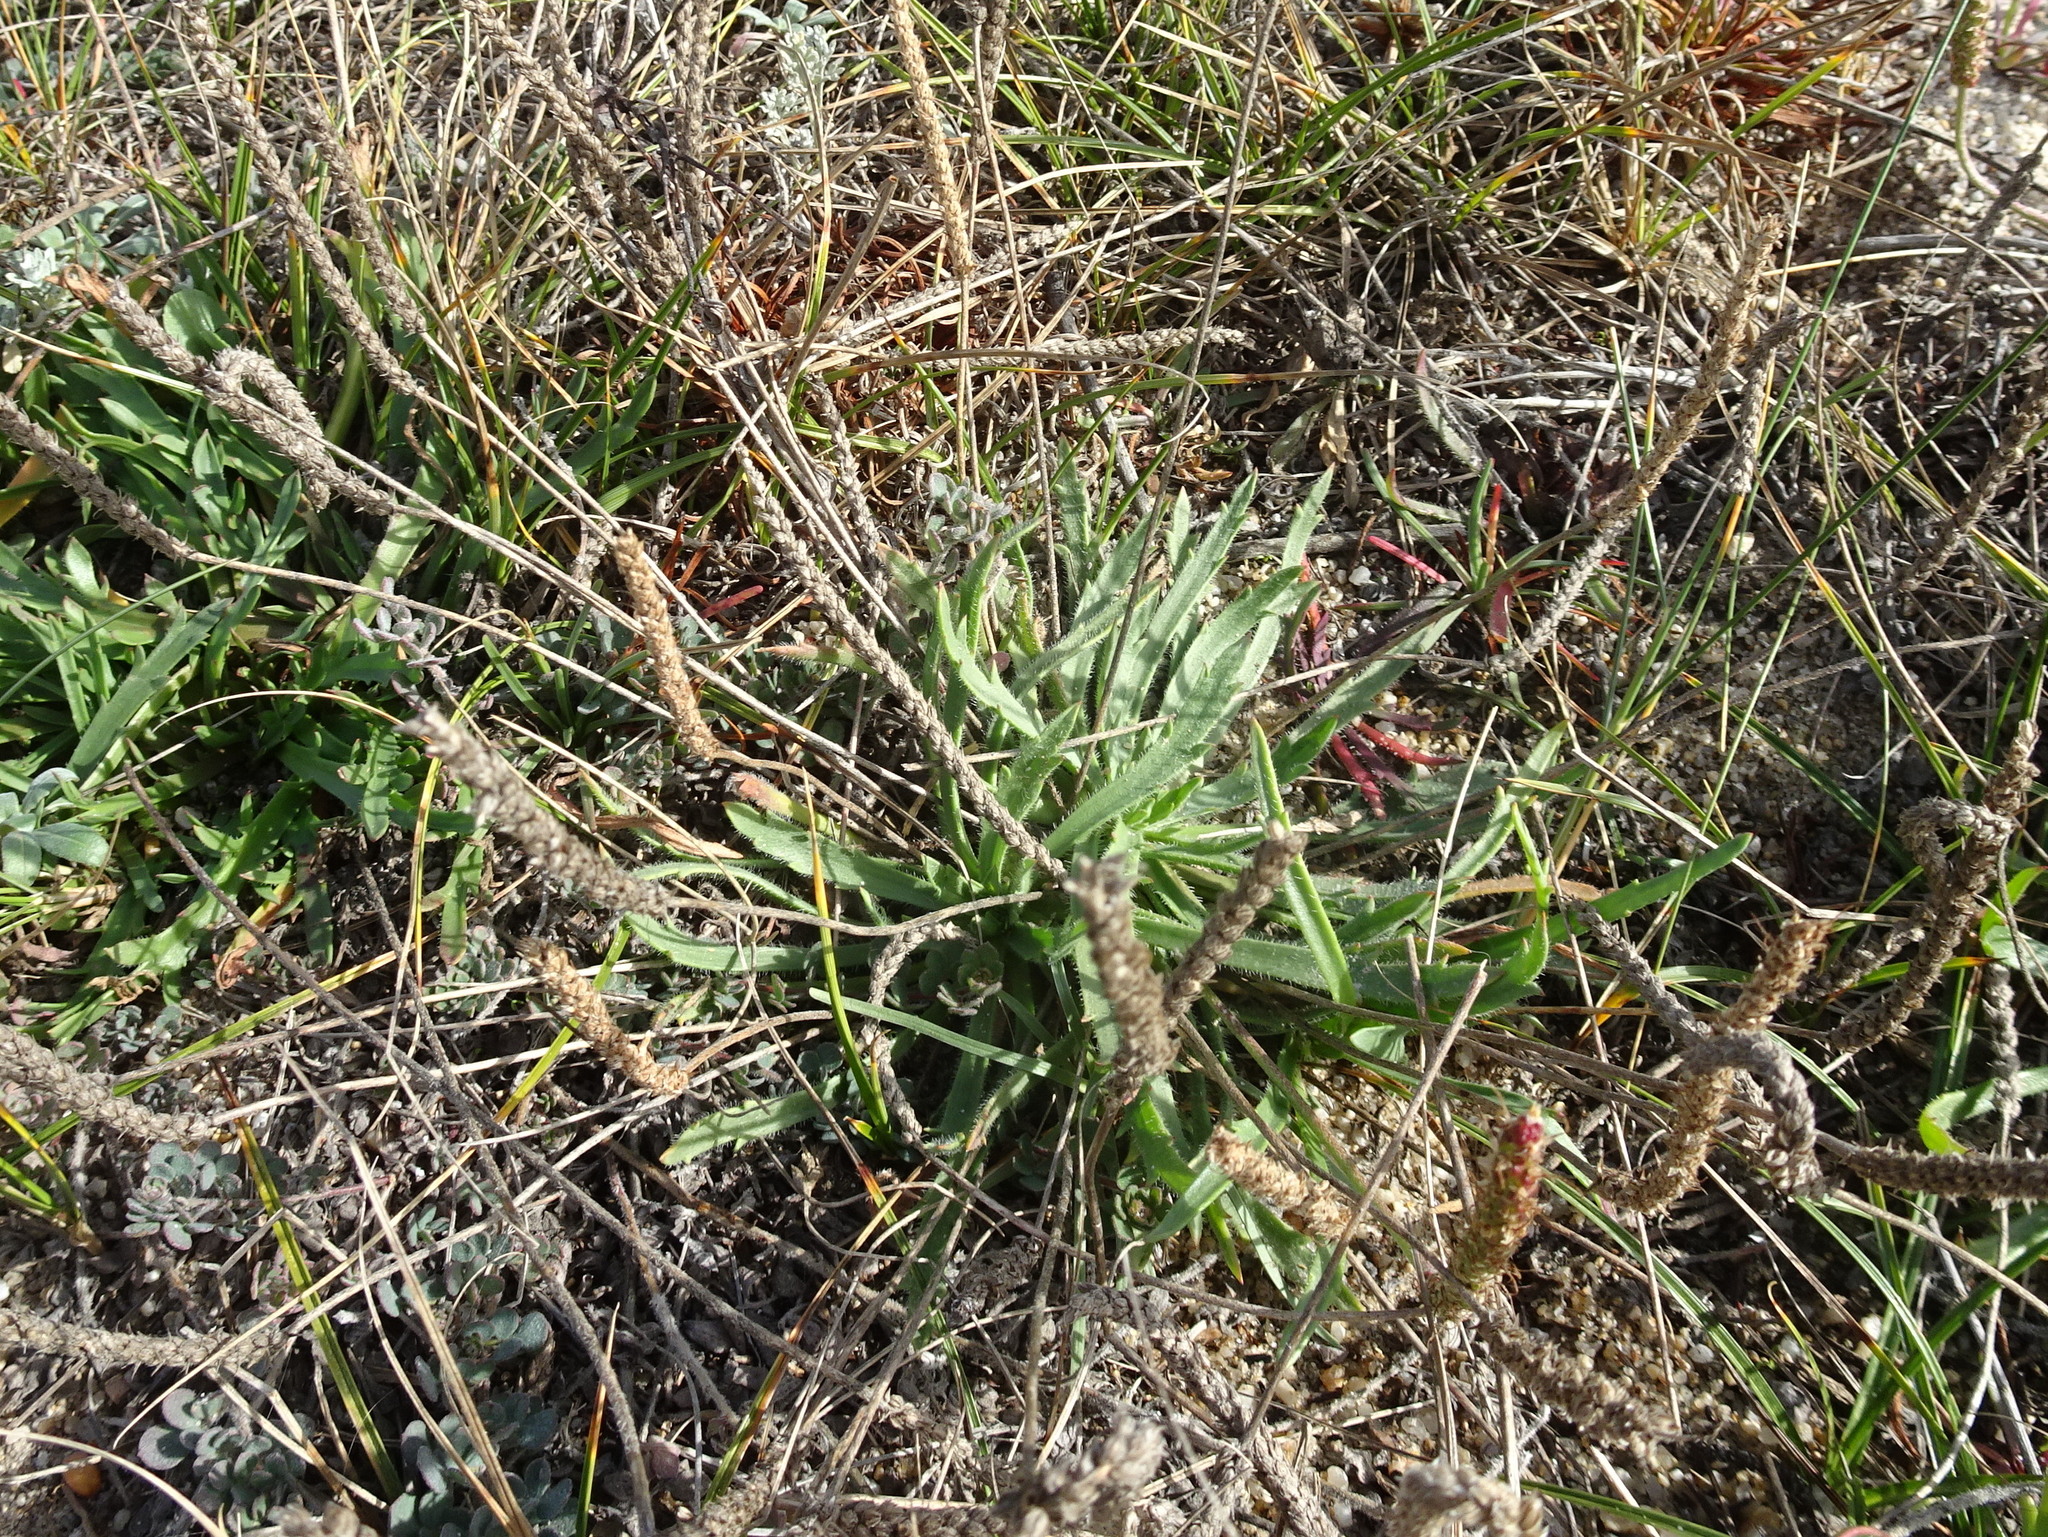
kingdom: Plantae
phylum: Tracheophyta
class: Magnoliopsida
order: Lamiales
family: Plantaginaceae
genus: Plantago
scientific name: Plantago coronopus
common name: Buck's-horn plantain
